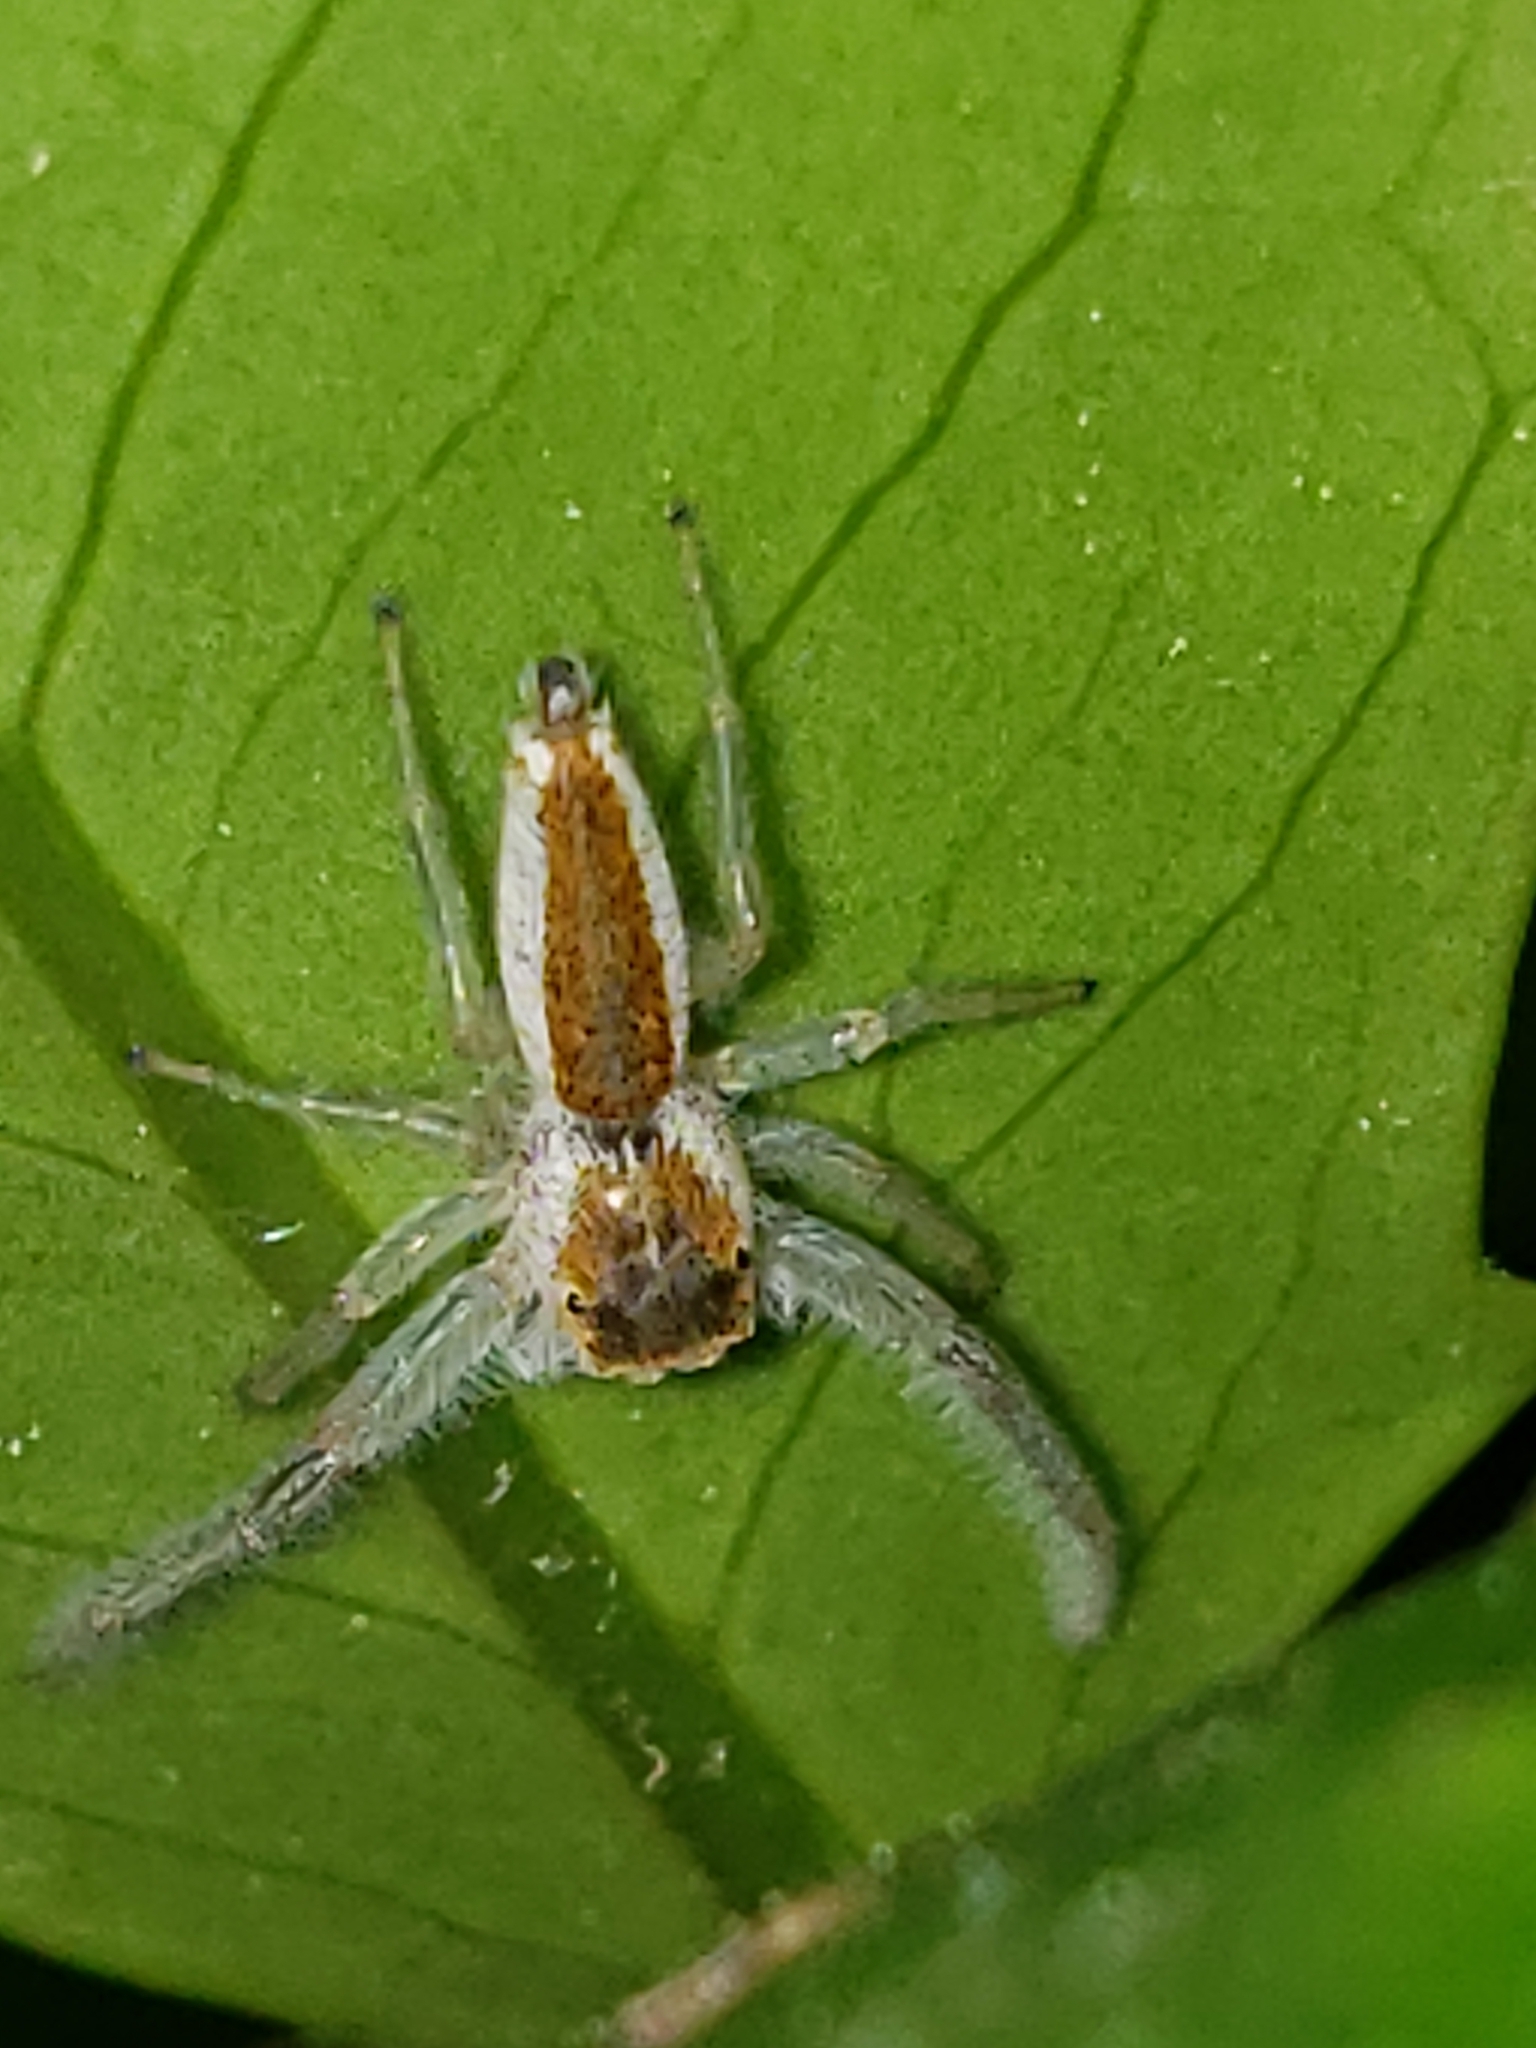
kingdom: Animalia
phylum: Arthropoda
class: Arachnida
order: Araneae
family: Salticidae
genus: Hentzia
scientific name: Hentzia mitrata
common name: White-jawed jumping spider
